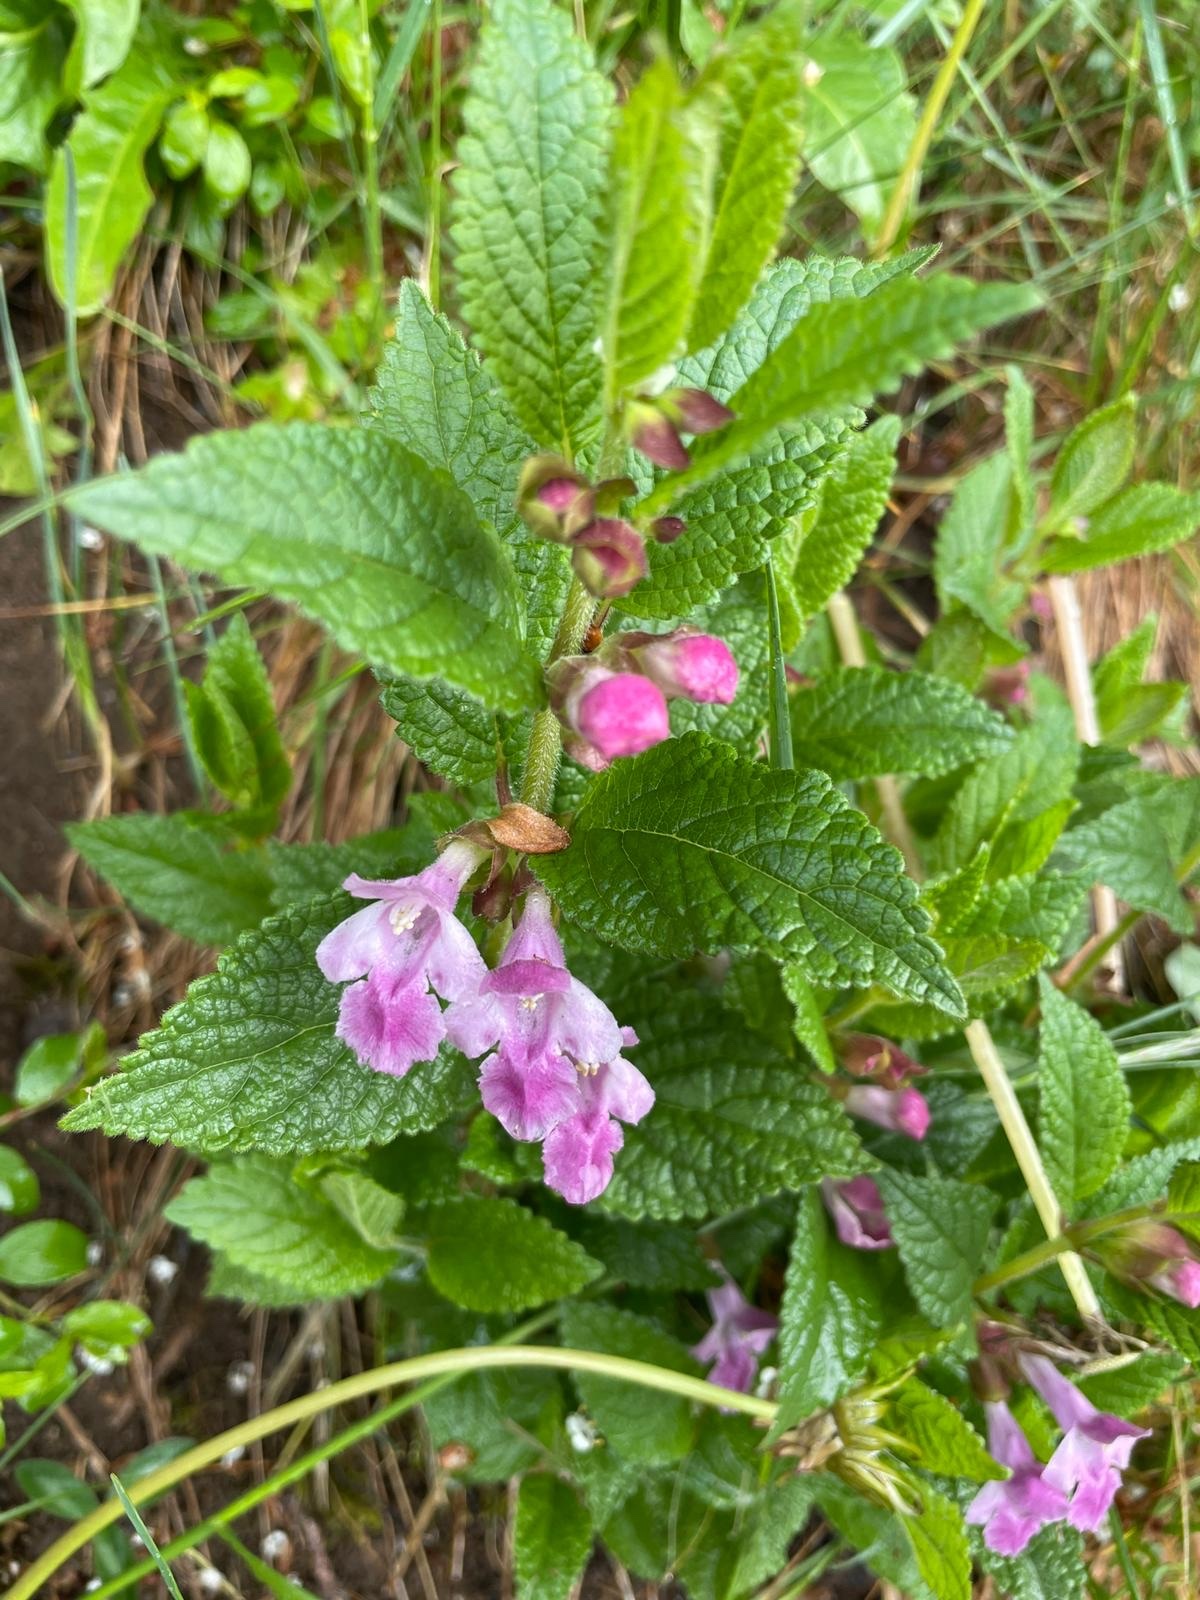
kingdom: Plantae
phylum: Tracheophyta
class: Magnoliopsida
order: Lamiales
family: Lamiaceae
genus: Melittis
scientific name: Melittis melissophyllum
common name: Bastard balm
